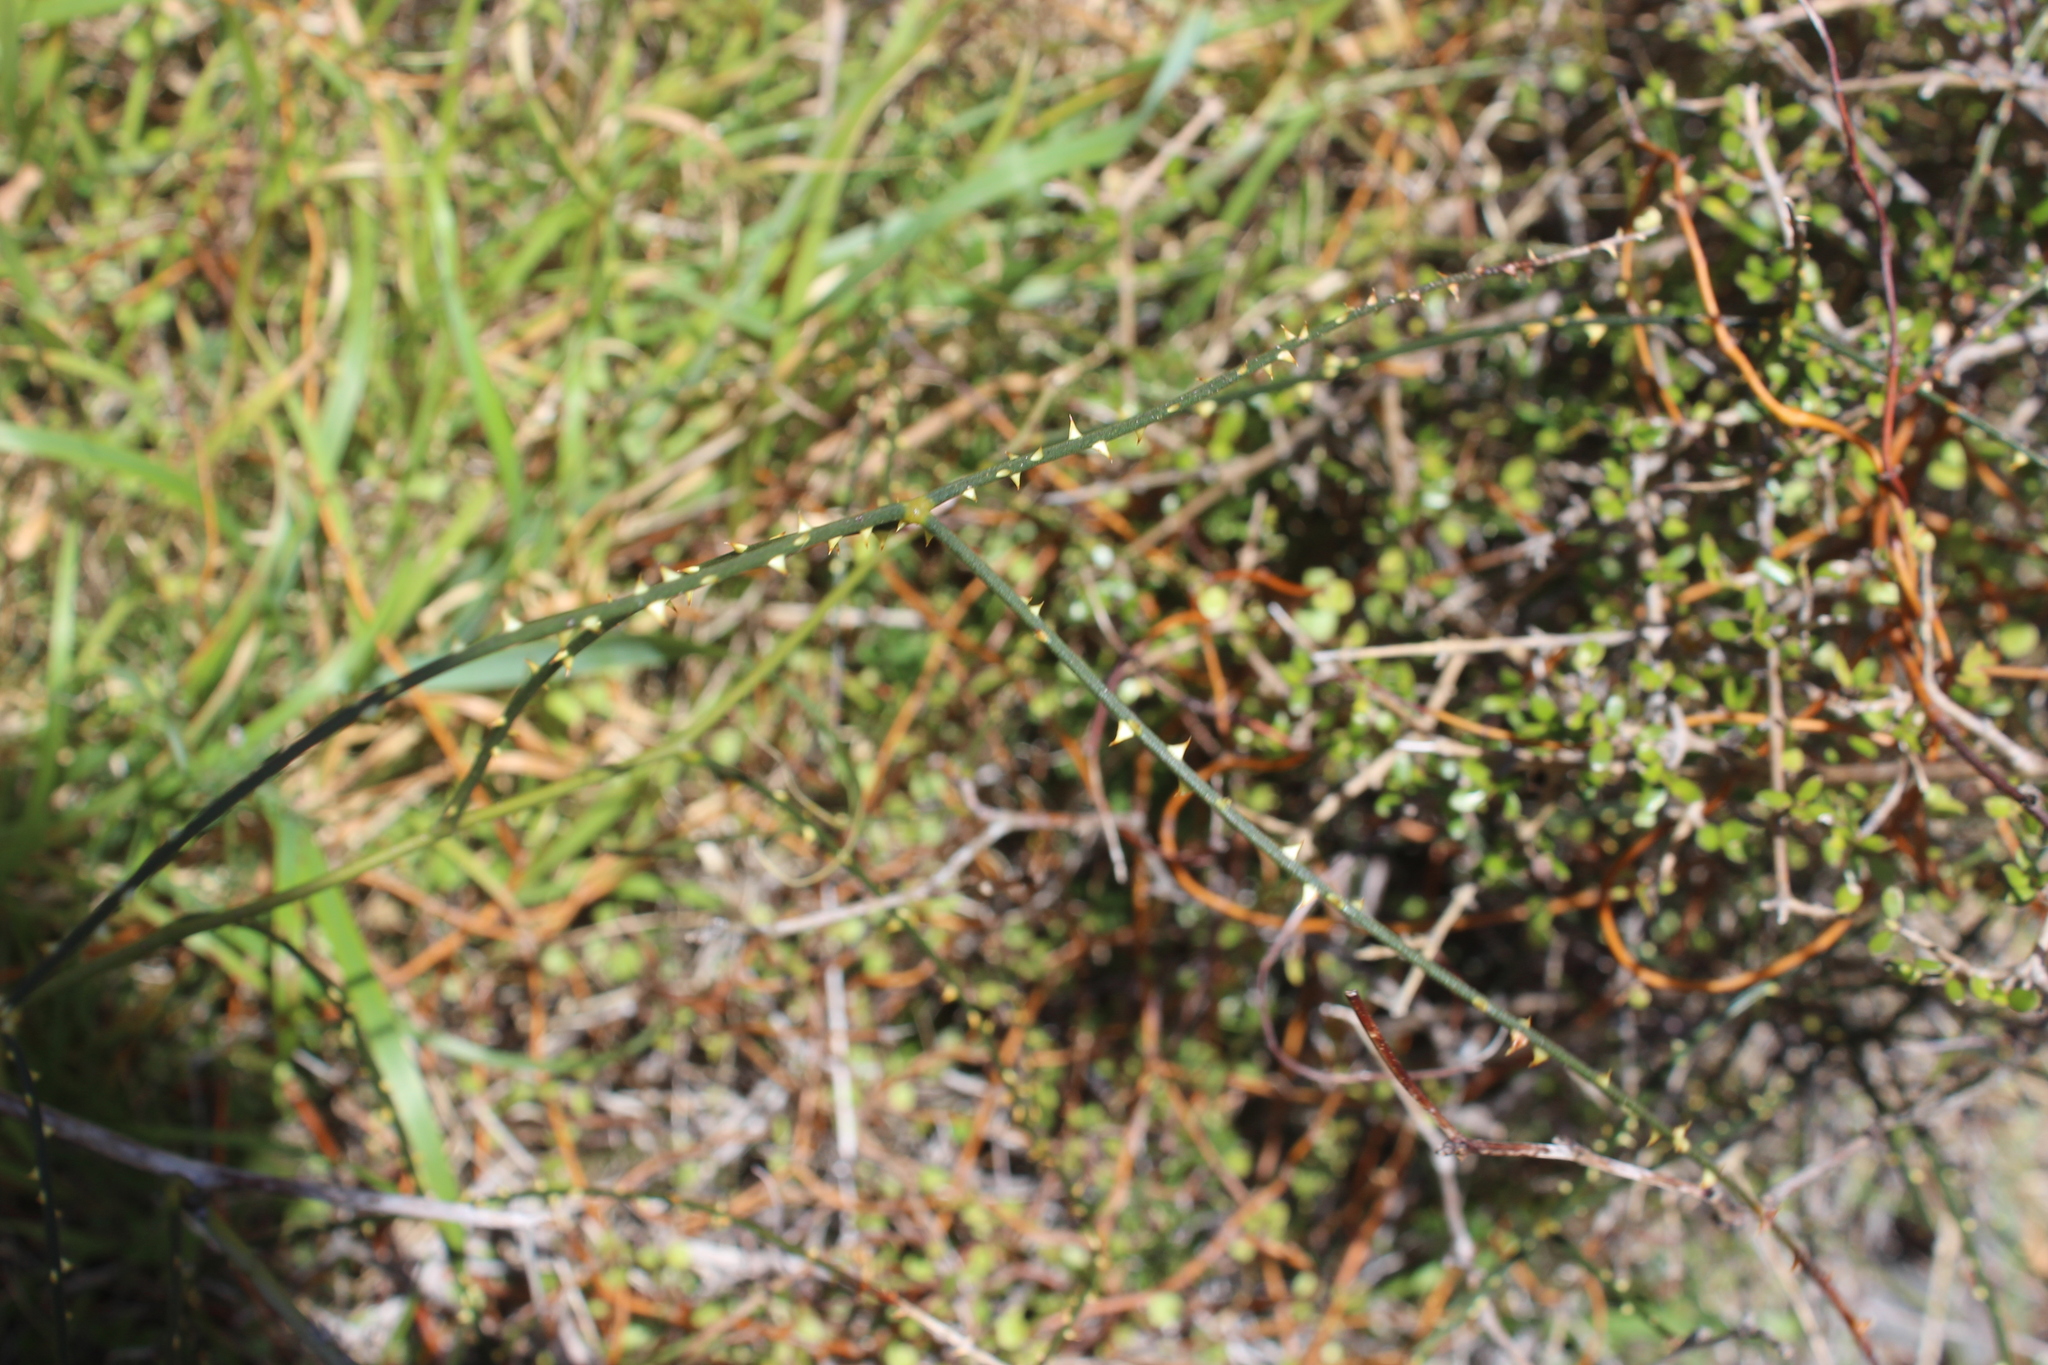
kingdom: Plantae
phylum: Tracheophyta
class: Magnoliopsida
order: Rosales
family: Rosaceae
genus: Rubus
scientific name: Rubus squarrosus
